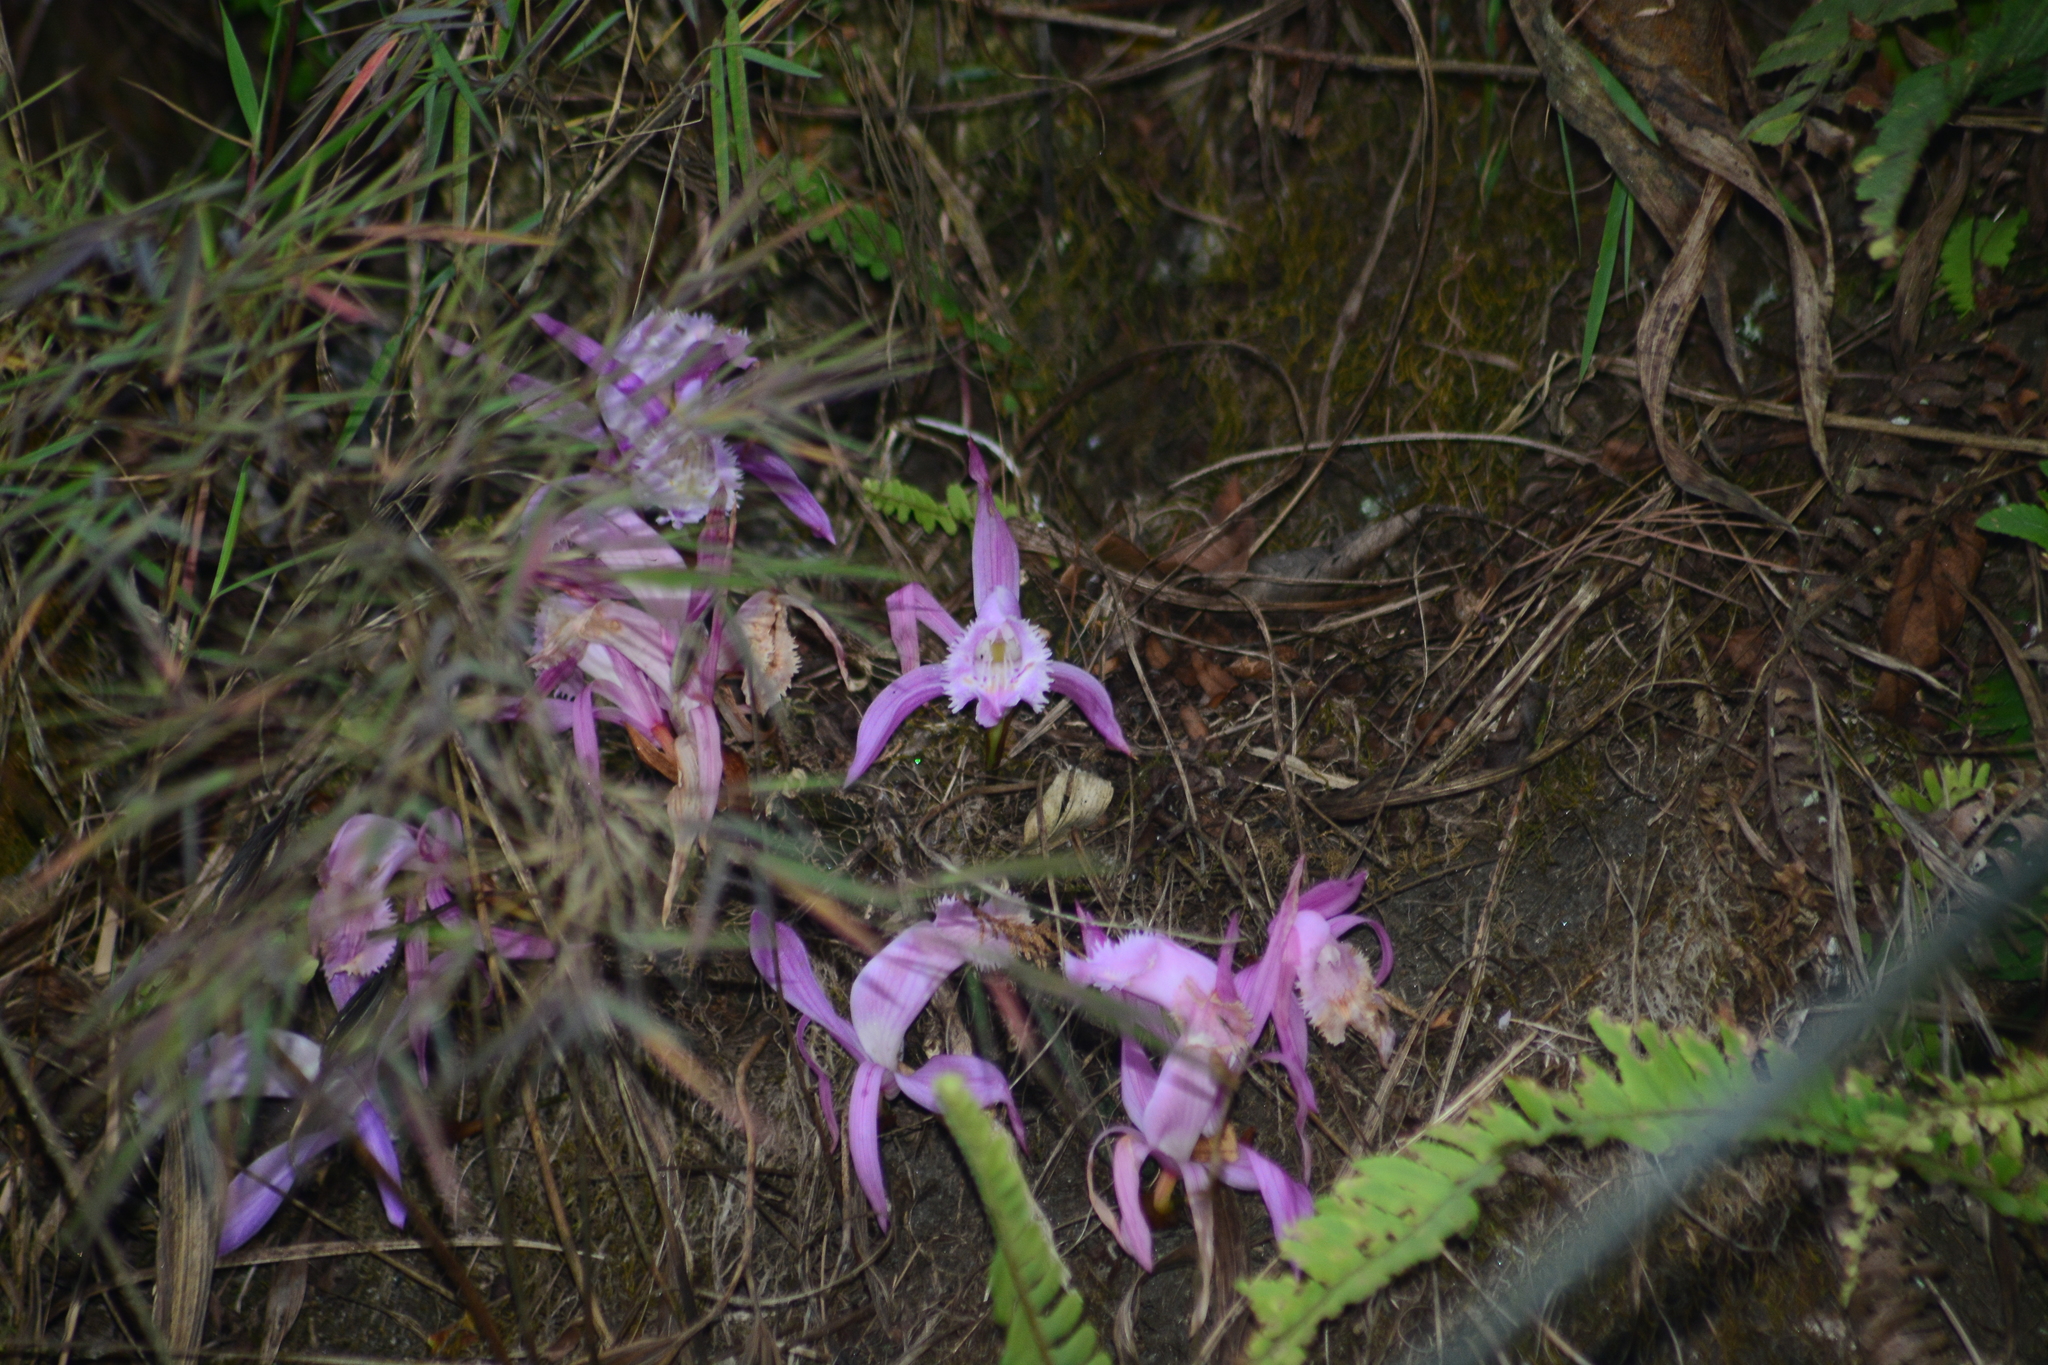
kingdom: Plantae
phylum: Tracheophyta
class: Liliopsida
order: Asparagales
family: Orchidaceae
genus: Pleione
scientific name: Pleione praecox
